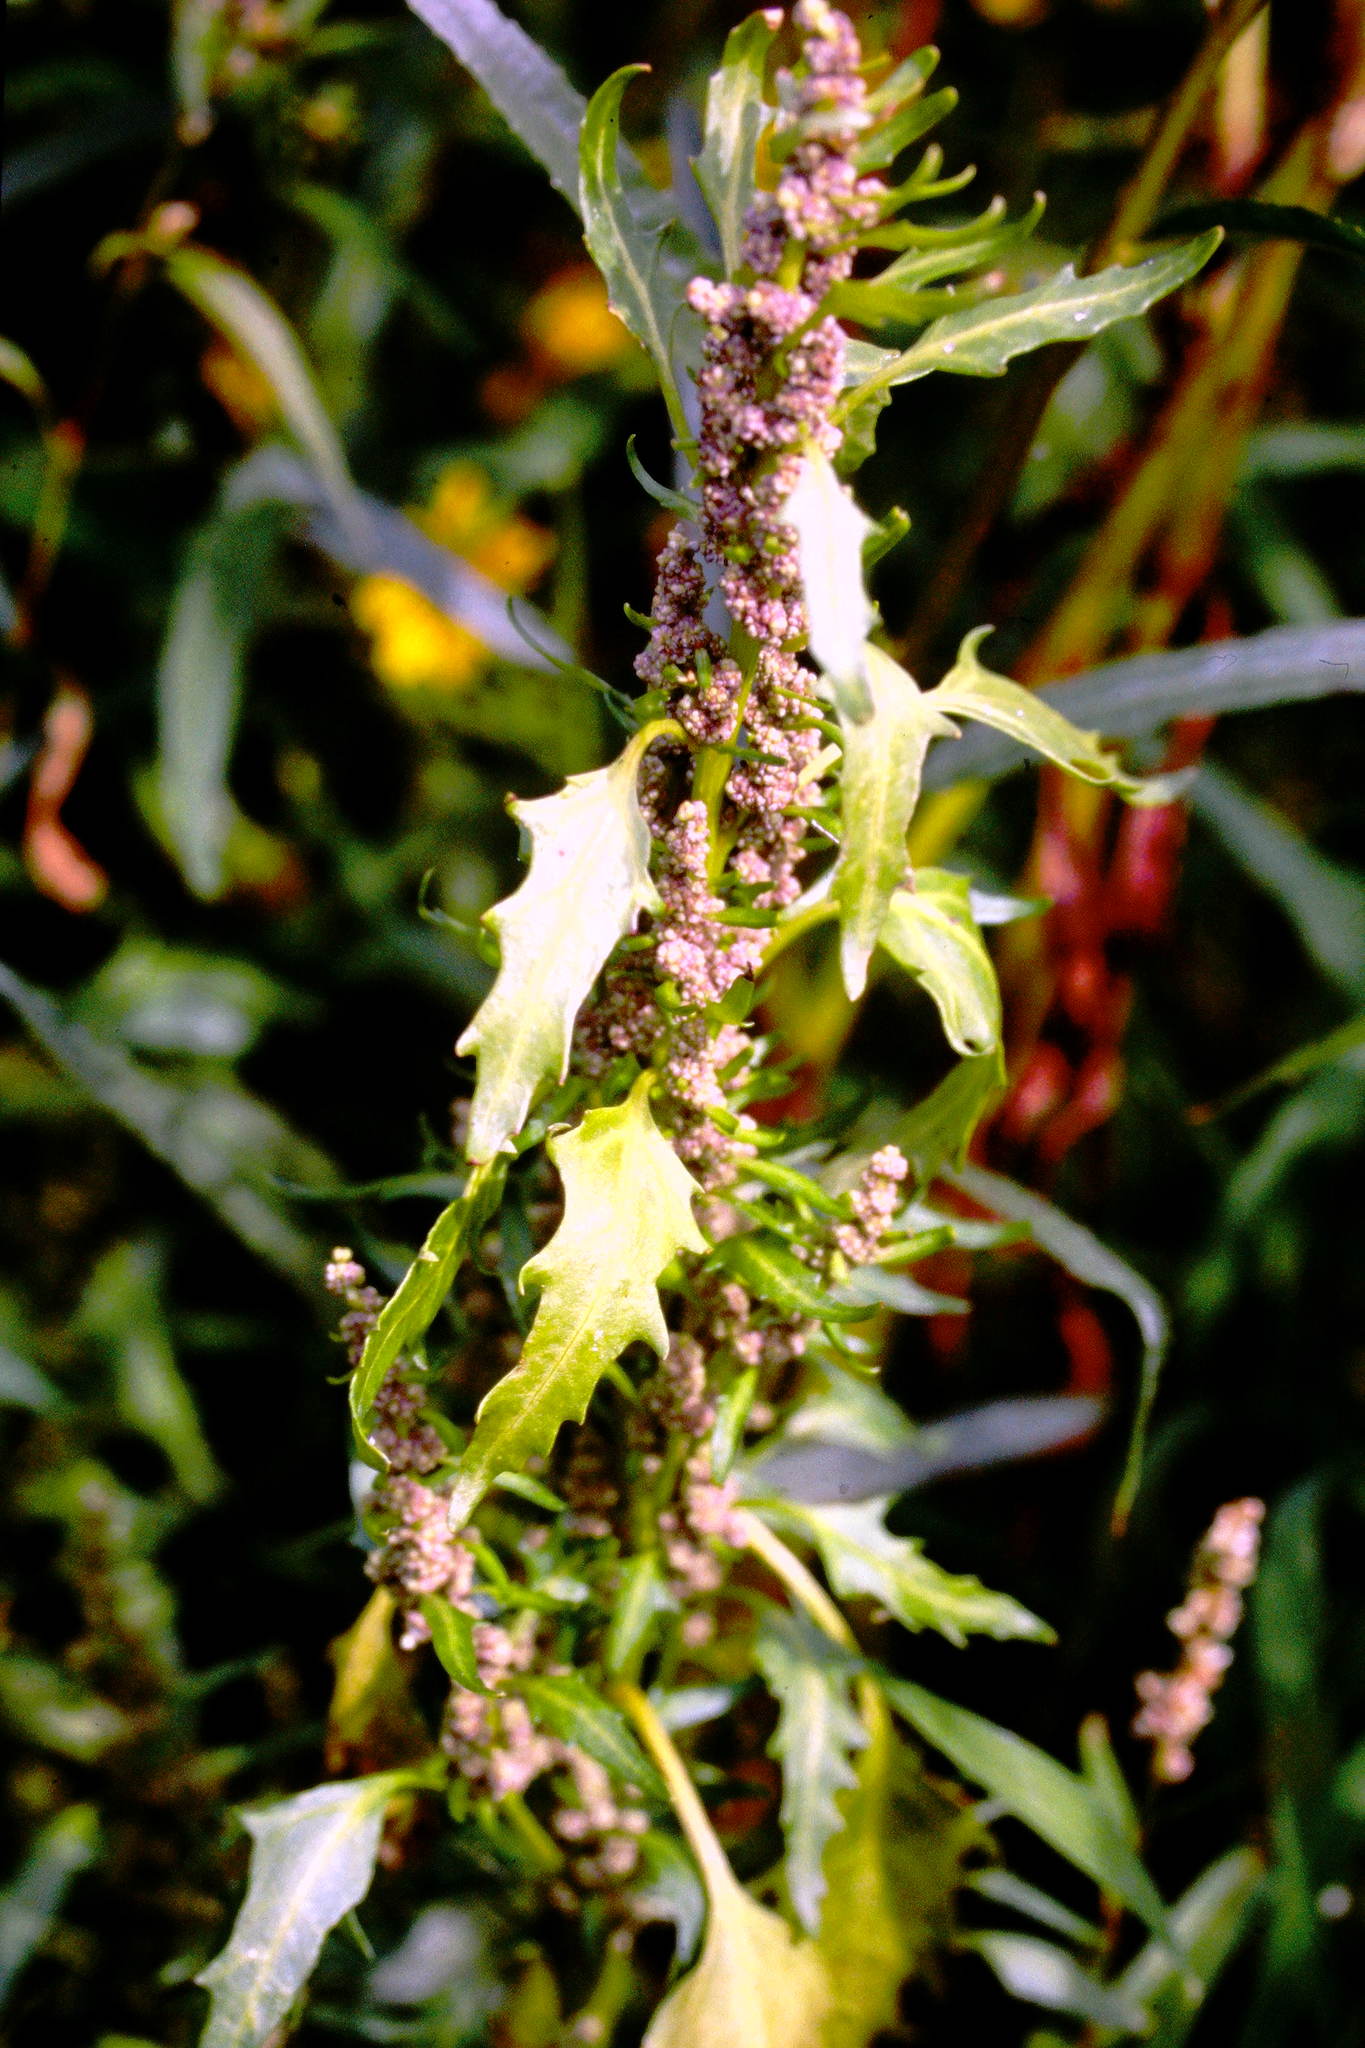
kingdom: Plantae
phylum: Tracheophyta
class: Magnoliopsida
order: Caryophyllales
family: Amaranthaceae
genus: Oxybasis
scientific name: Oxybasis rubra
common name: Red goosefoot
